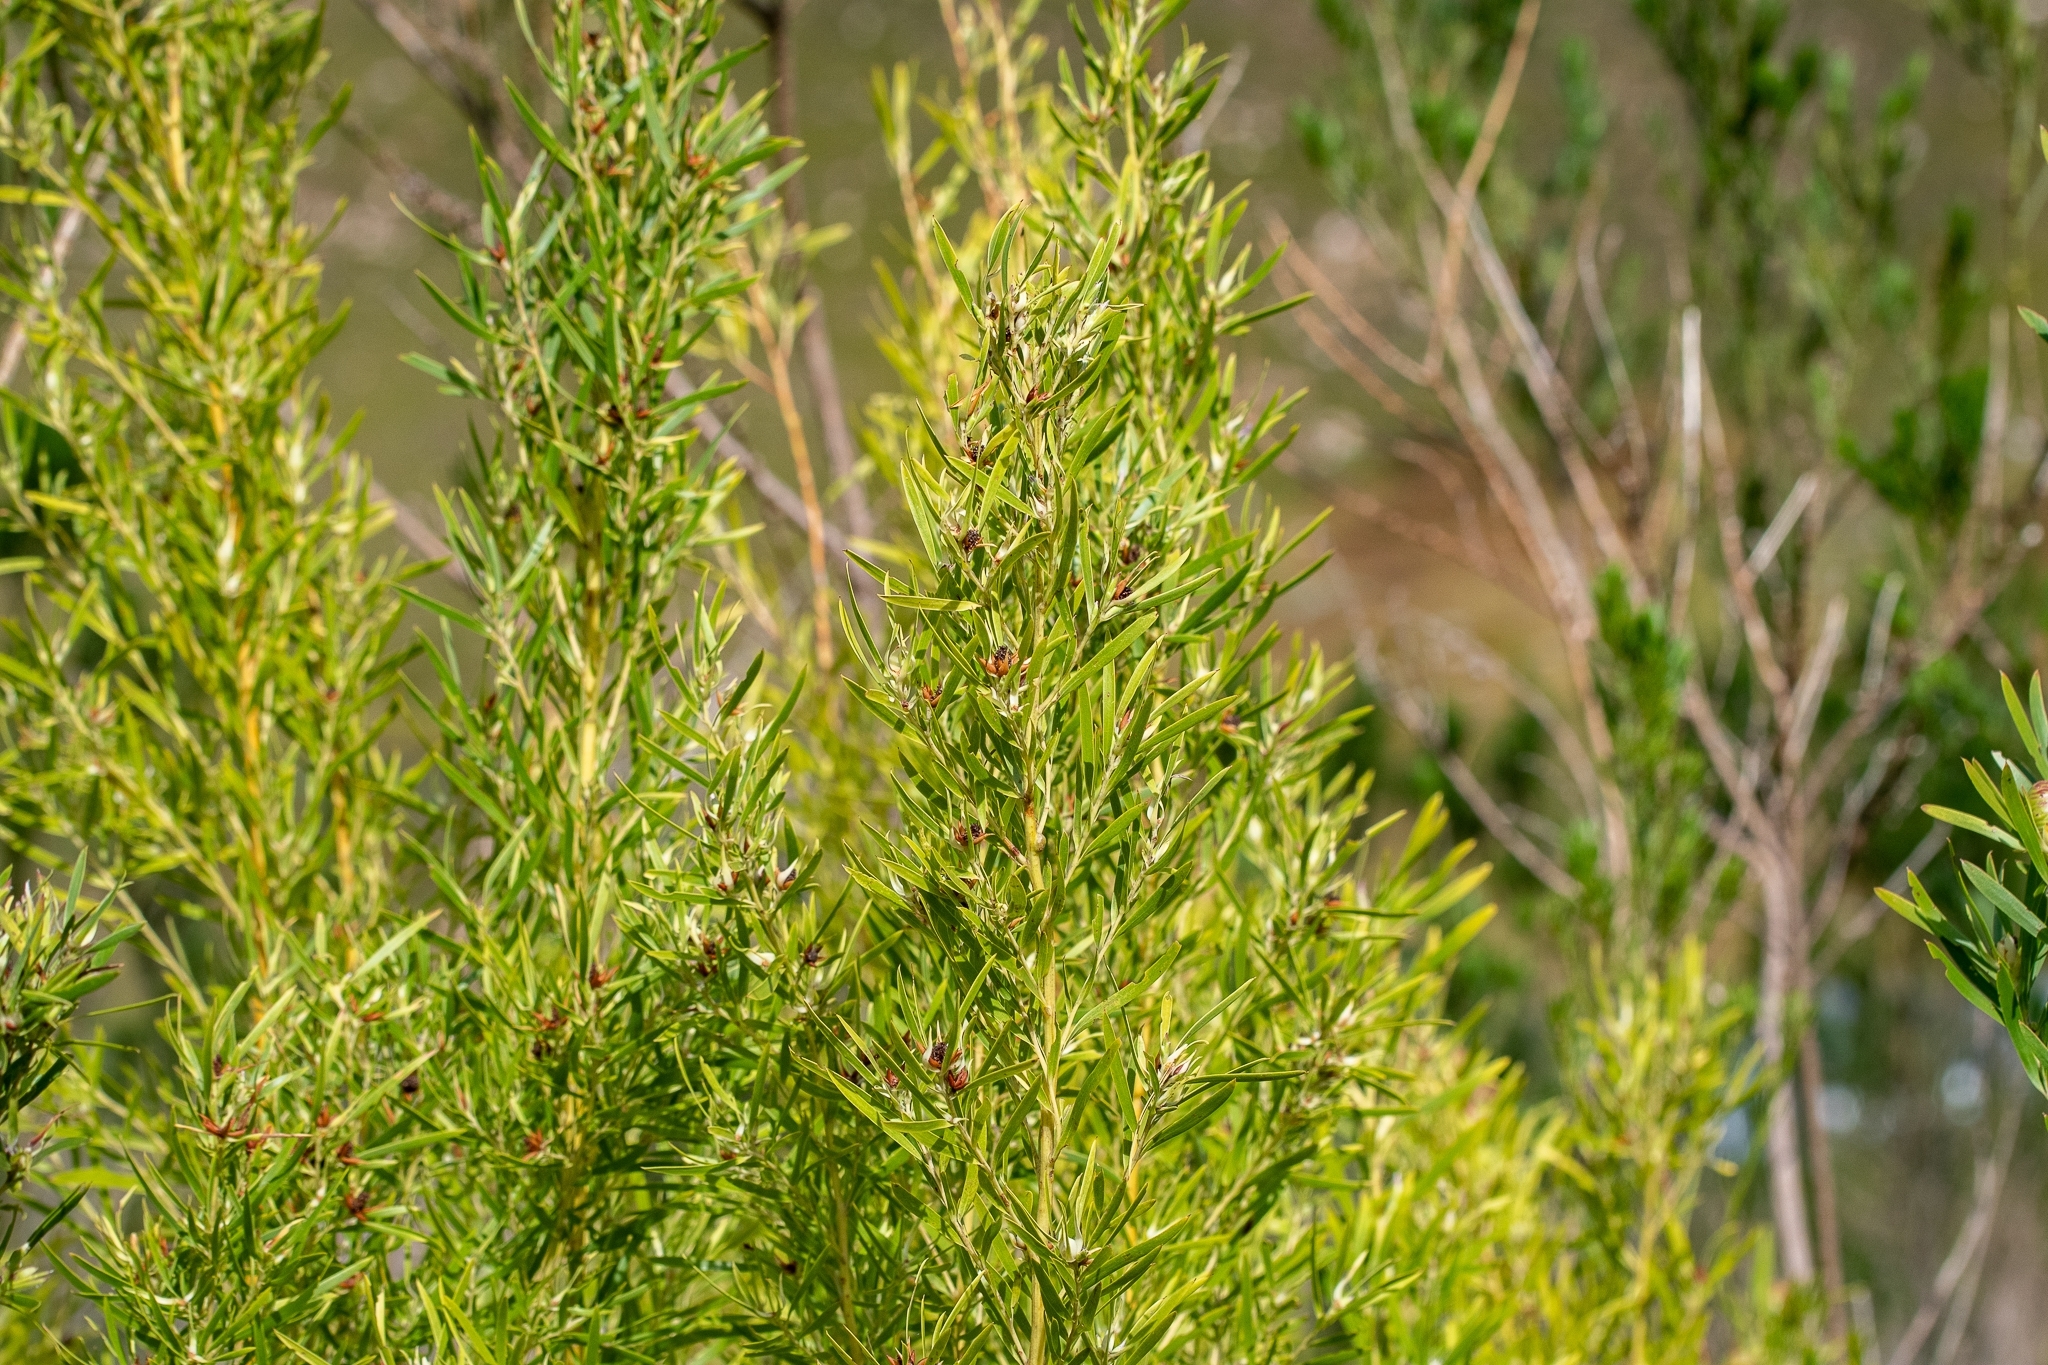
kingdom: Plantae
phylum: Tracheophyta
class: Magnoliopsida
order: Proteales
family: Proteaceae
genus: Leucadendron
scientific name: Leucadendron salicifolium
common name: Common stream conebush
